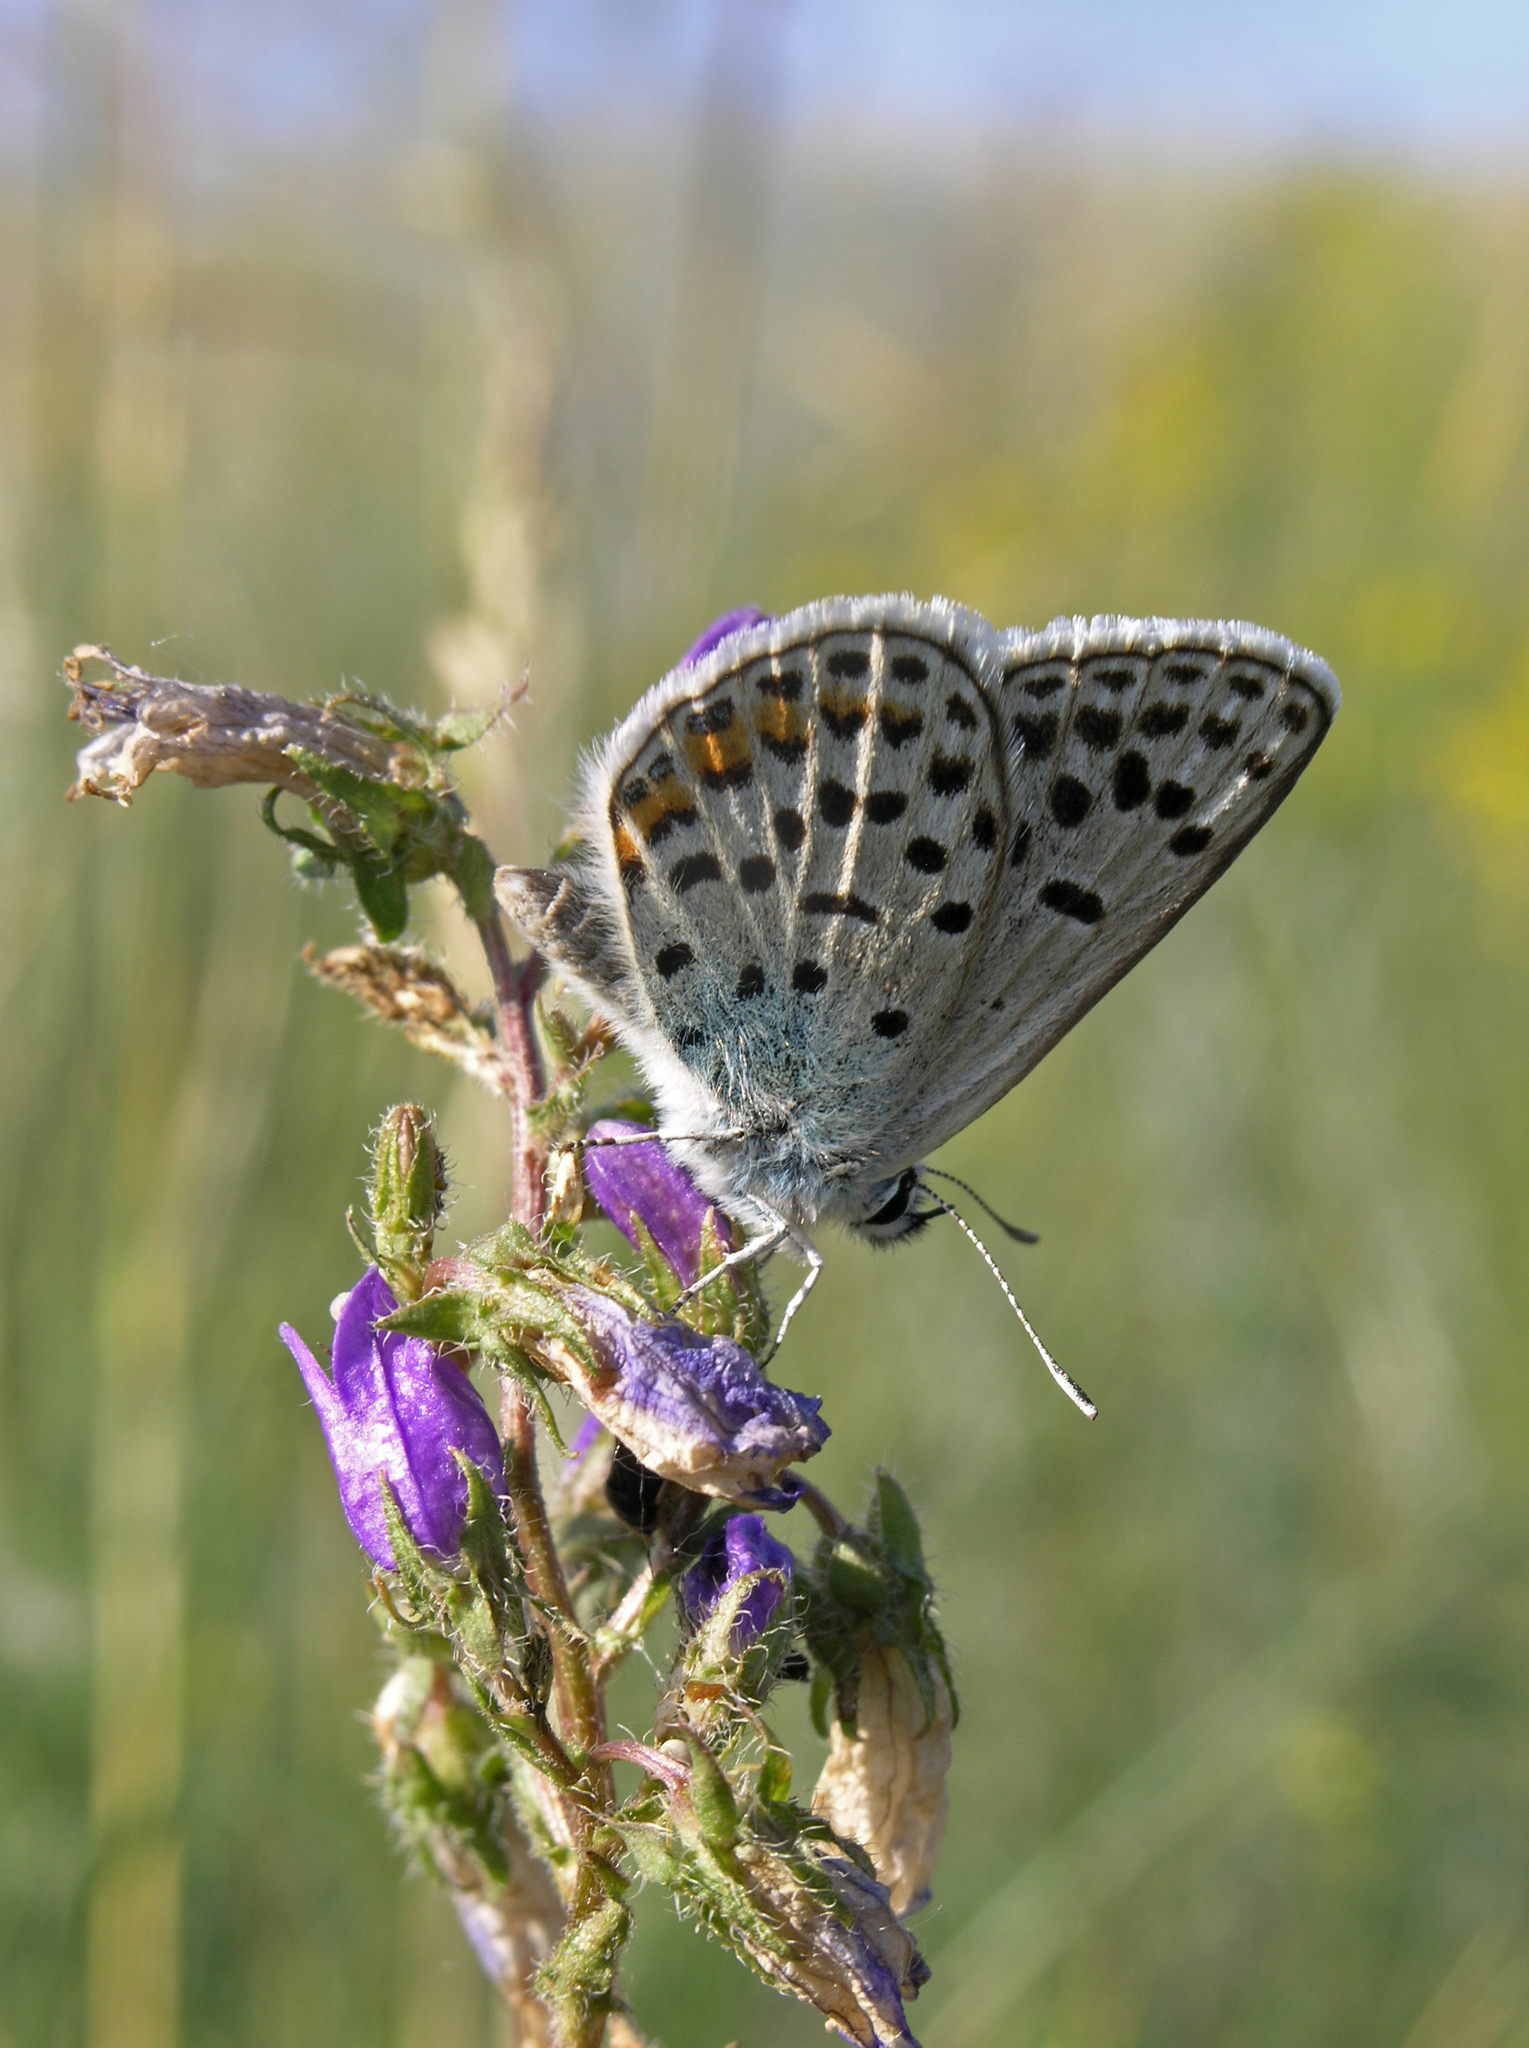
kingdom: Plantae
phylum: Tracheophyta
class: Magnoliopsida
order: Asterales
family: Campanulaceae
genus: Campanula
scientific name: Campanula sibirica
